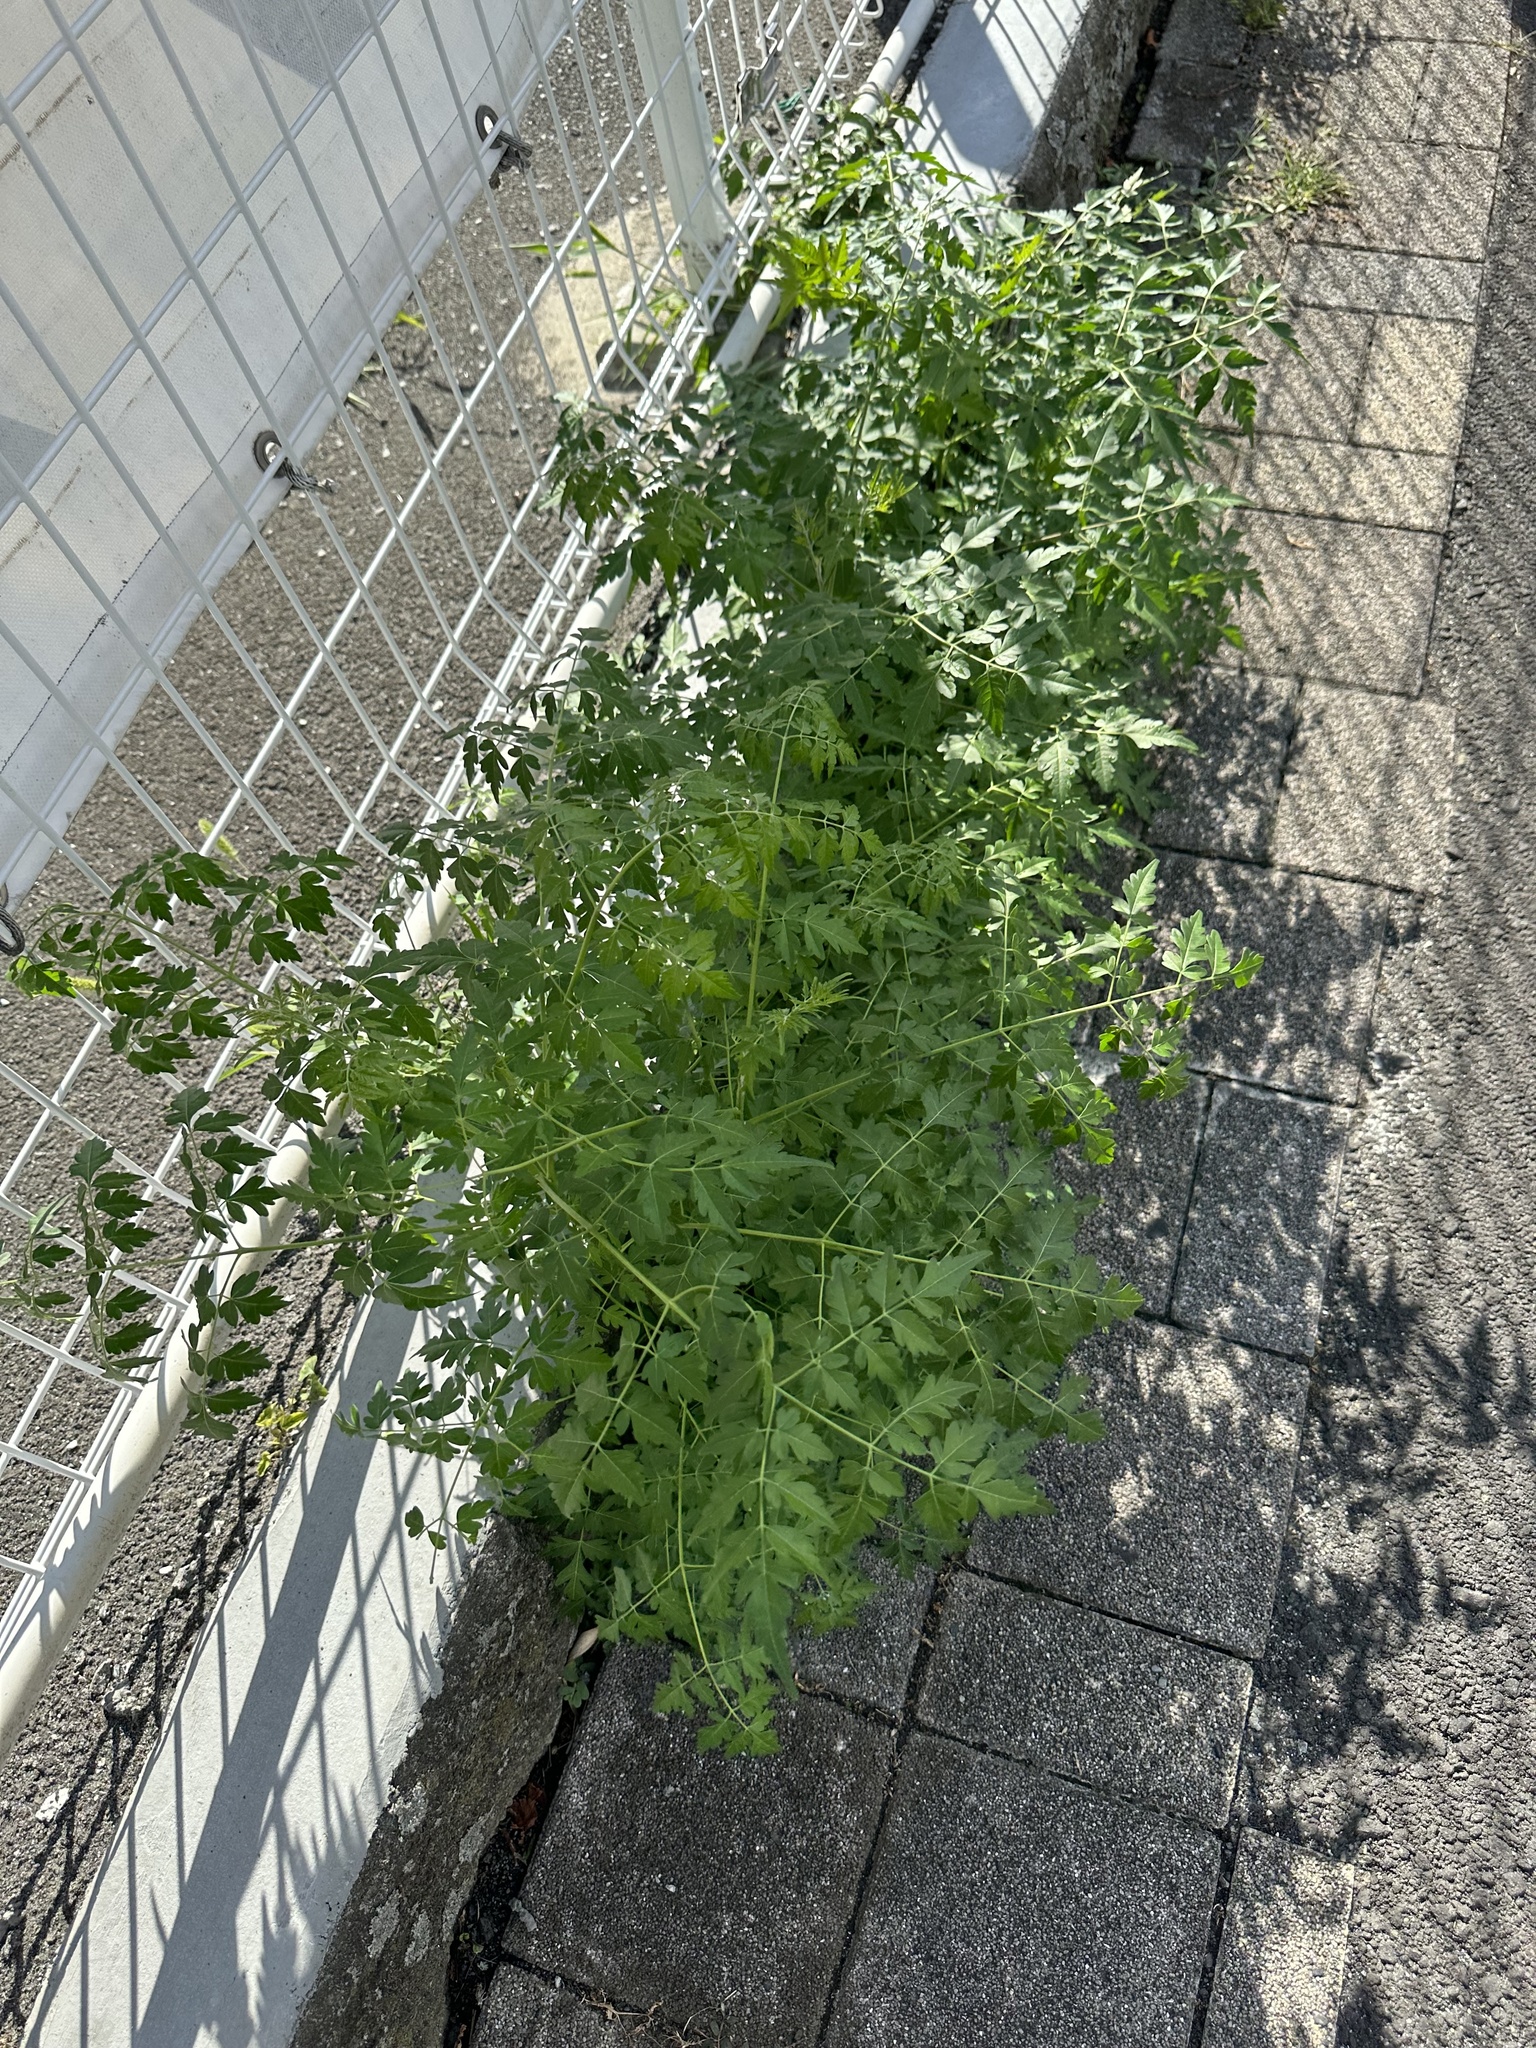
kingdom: Plantae
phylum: Tracheophyta
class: Magnoliopsida
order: Sapindales
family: Meliaceae
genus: Melia
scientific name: Melia azedarach
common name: Chinaberrytree
